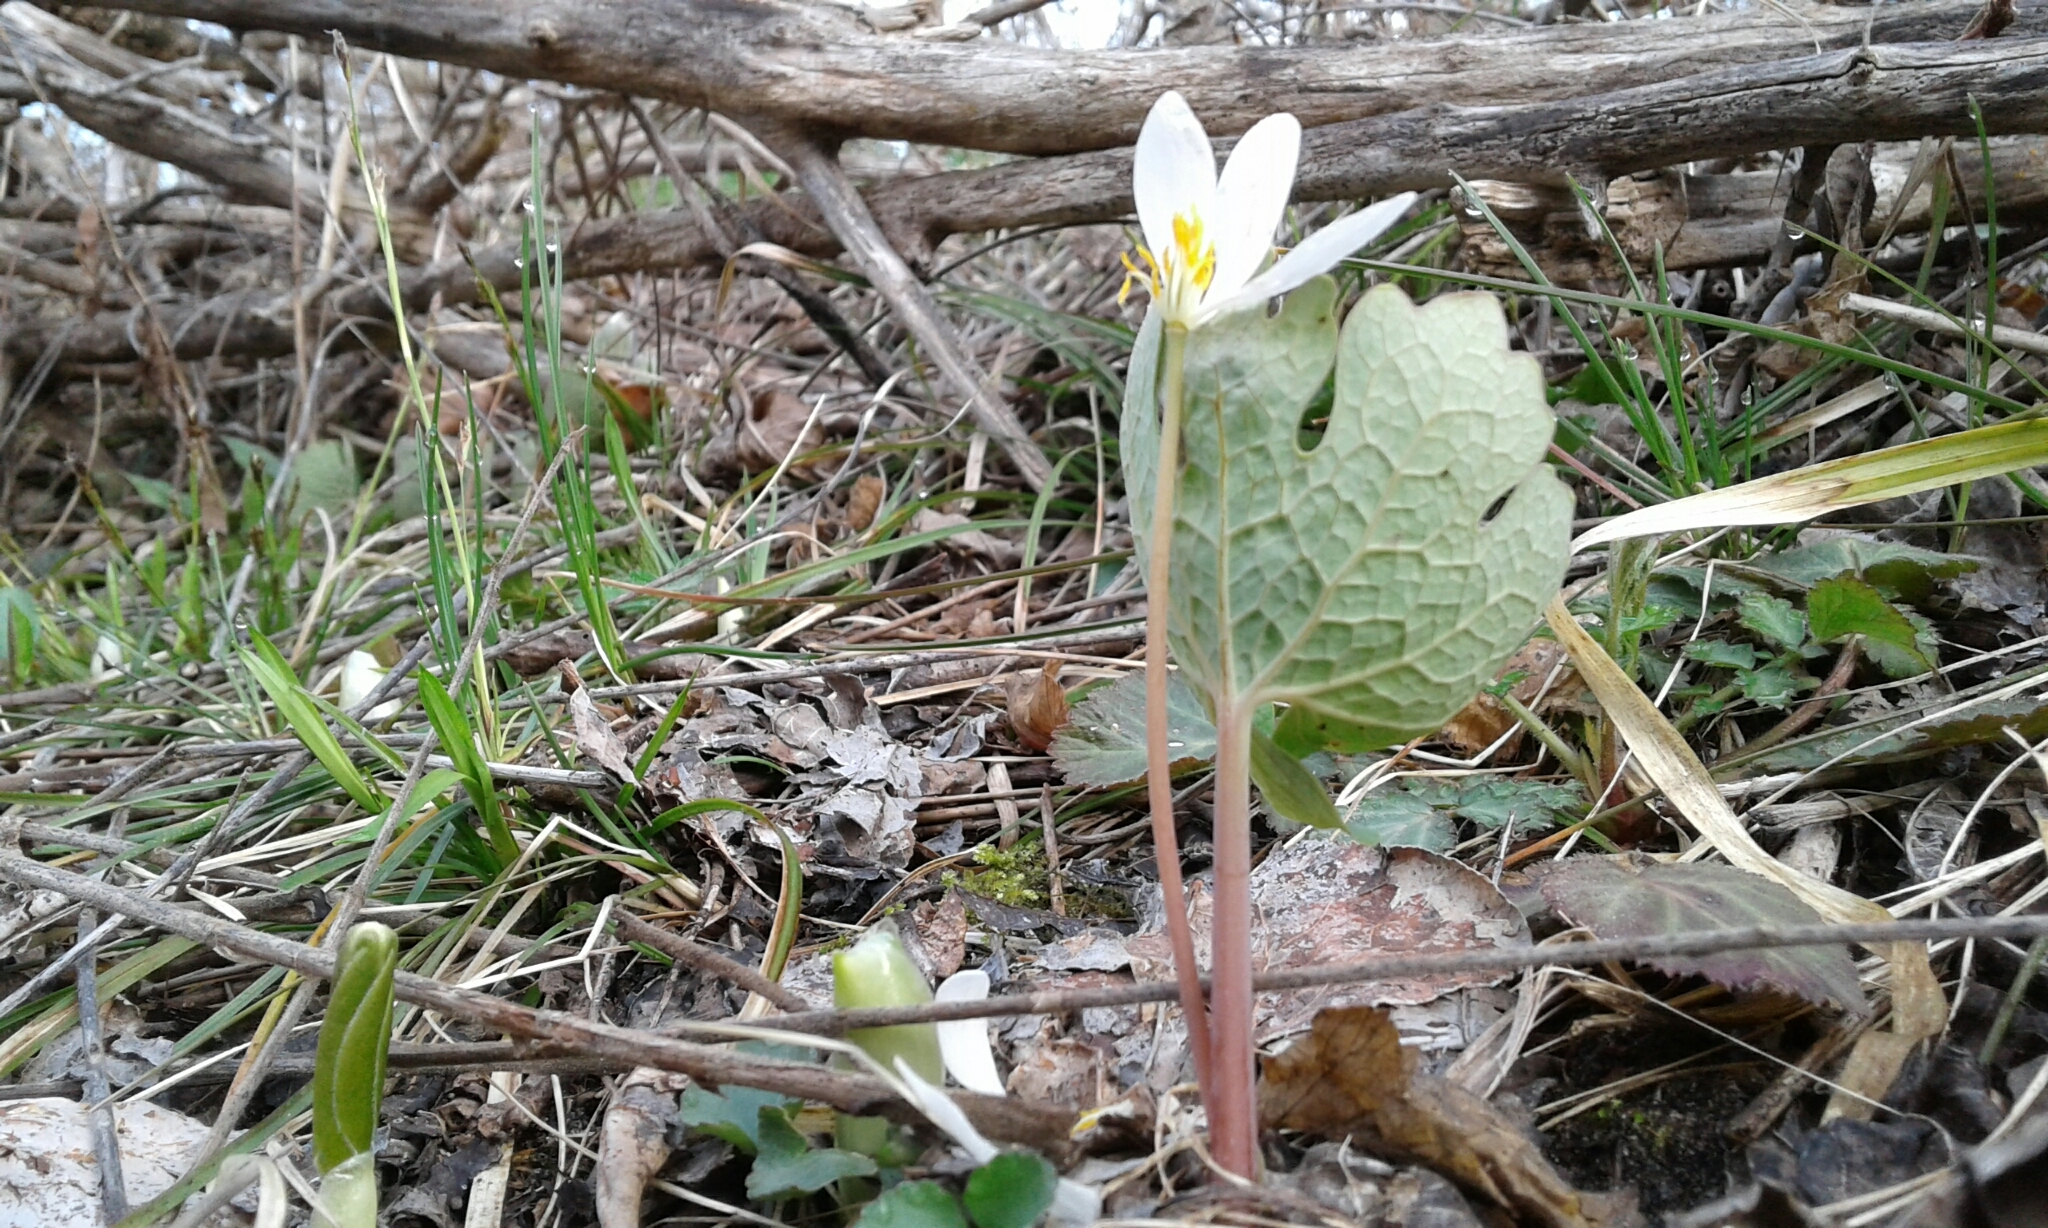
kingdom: Plantae
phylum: Tracheophyta
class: Magnoliopsida
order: Ranunculales
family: Papaveraceae
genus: Sanguinaria
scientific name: Sanguinaria canadensis
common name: Bloodroot
